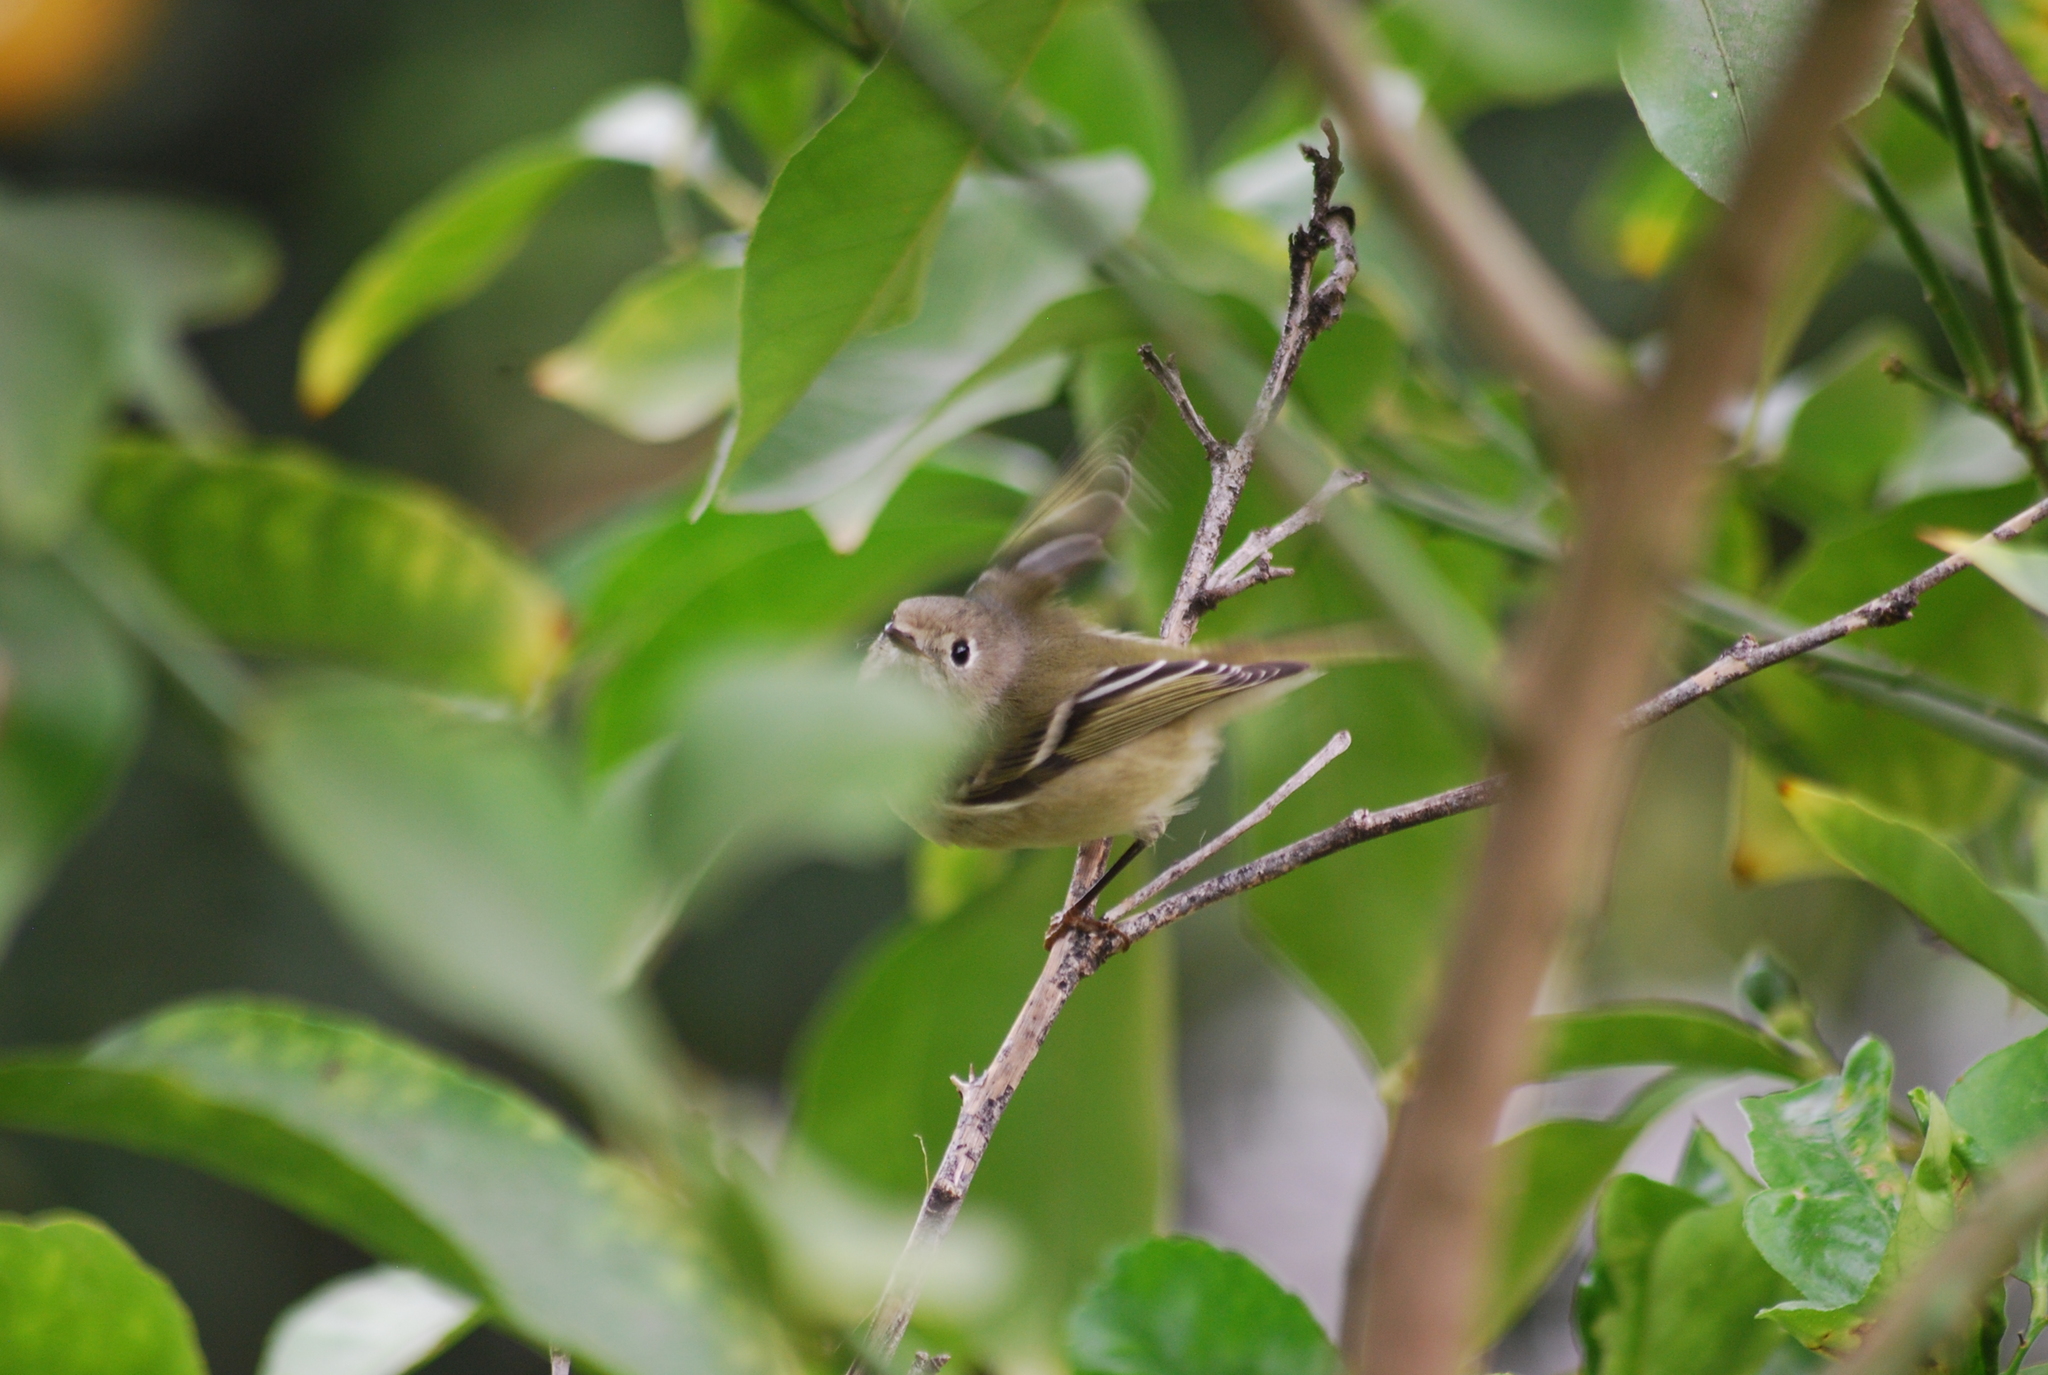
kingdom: Animalia
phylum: Chordata
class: Aves
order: Passeriformes
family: Regulidae
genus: Regulus
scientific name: Regulus calendula
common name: Ruby-crowned kinglet
